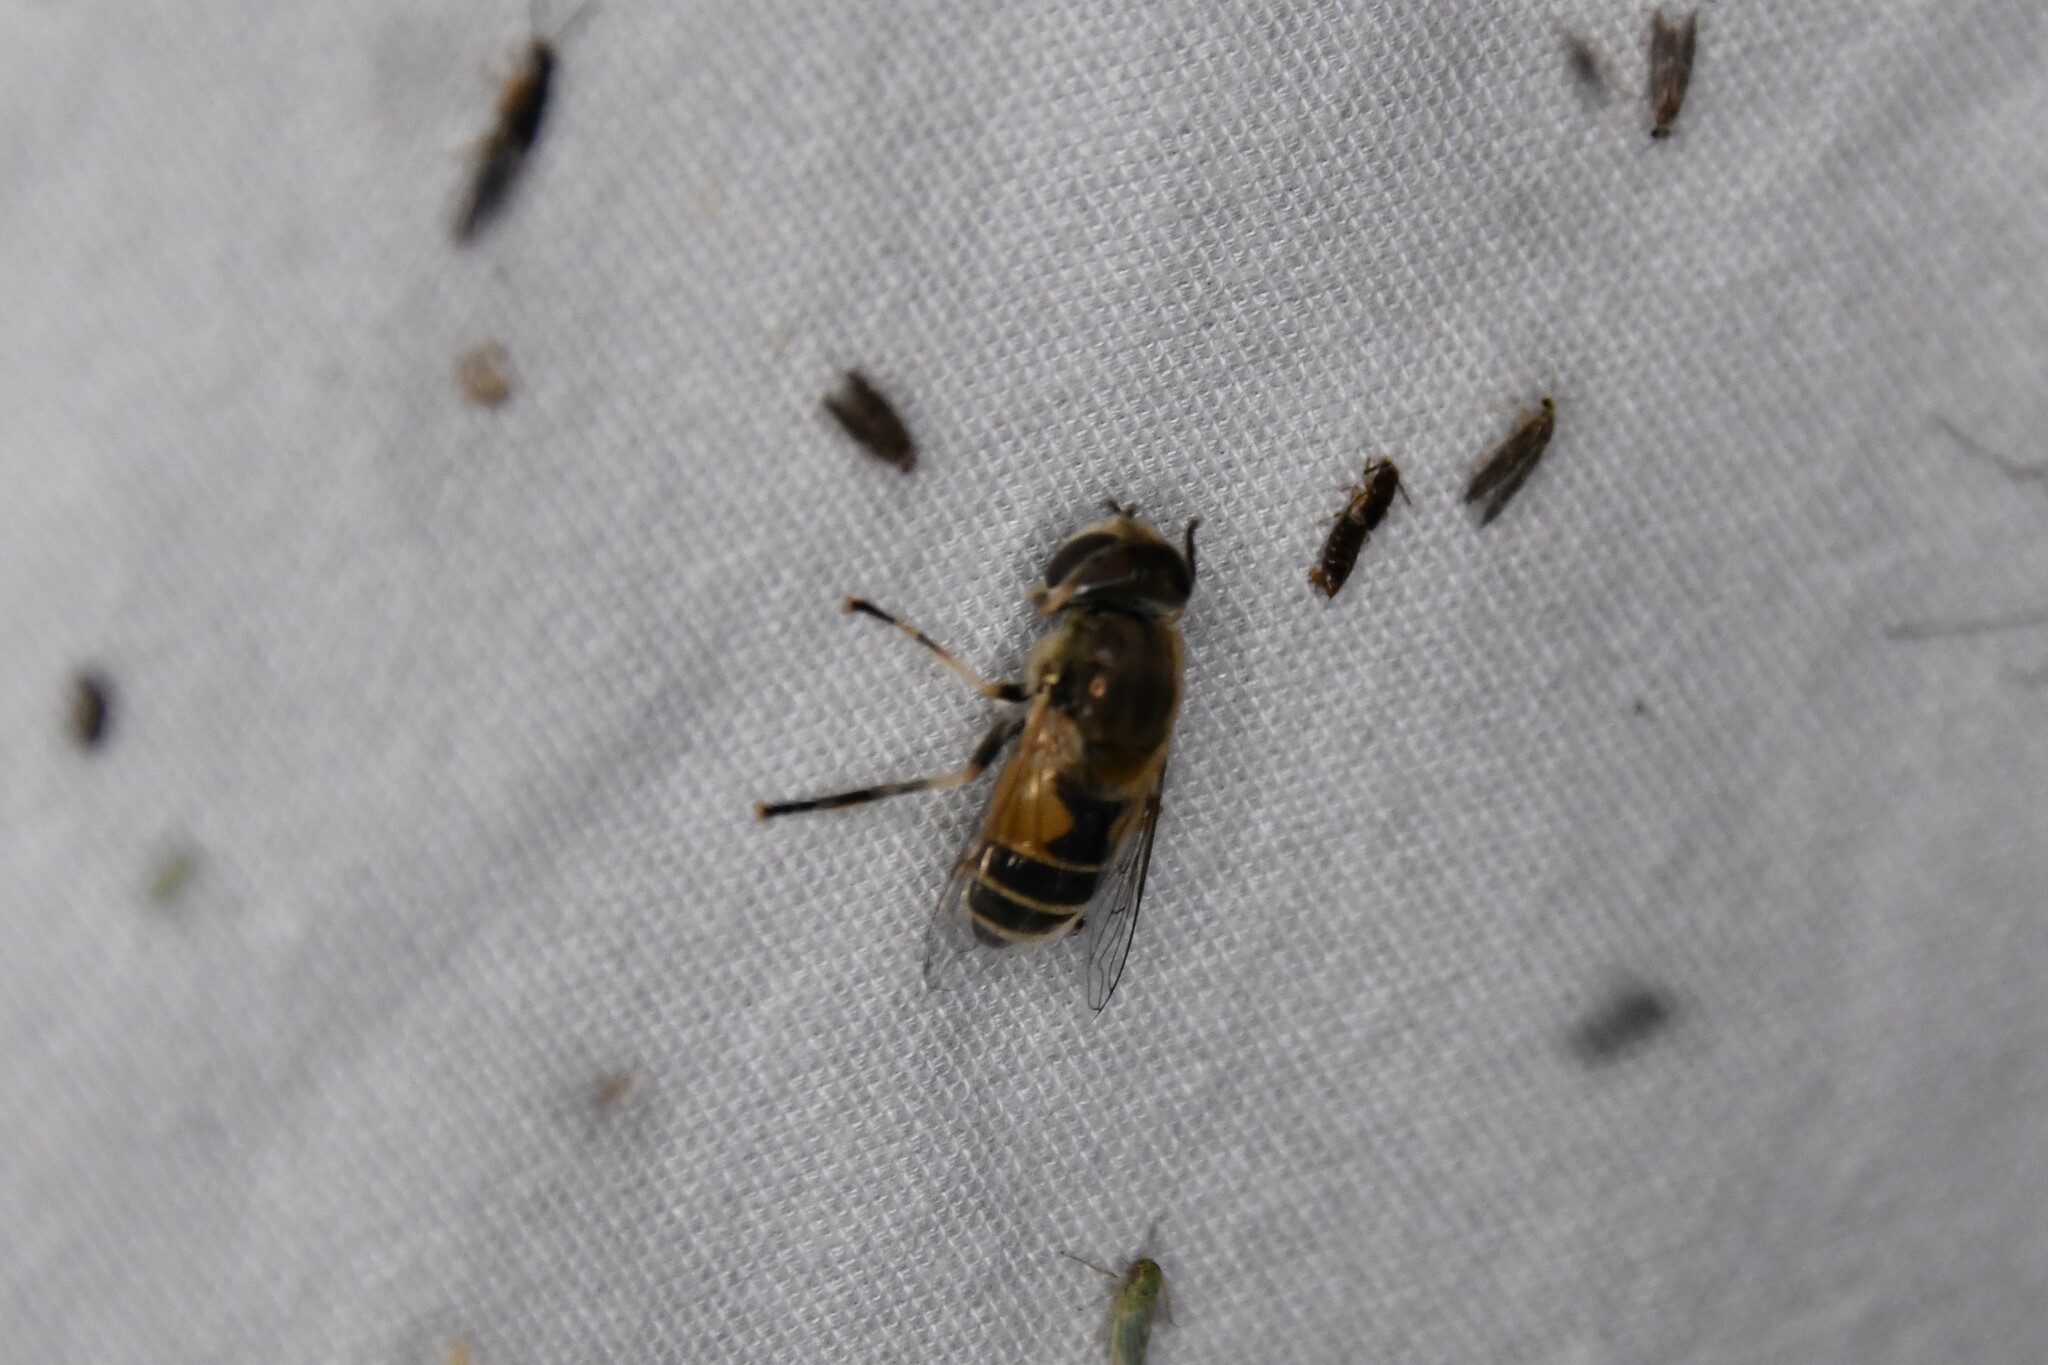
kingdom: Animalia
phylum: Arthropoda
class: Insecta
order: Diptera
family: Syrphidae
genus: Eristalis
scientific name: Eristalis arbustorum
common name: Hover fly
